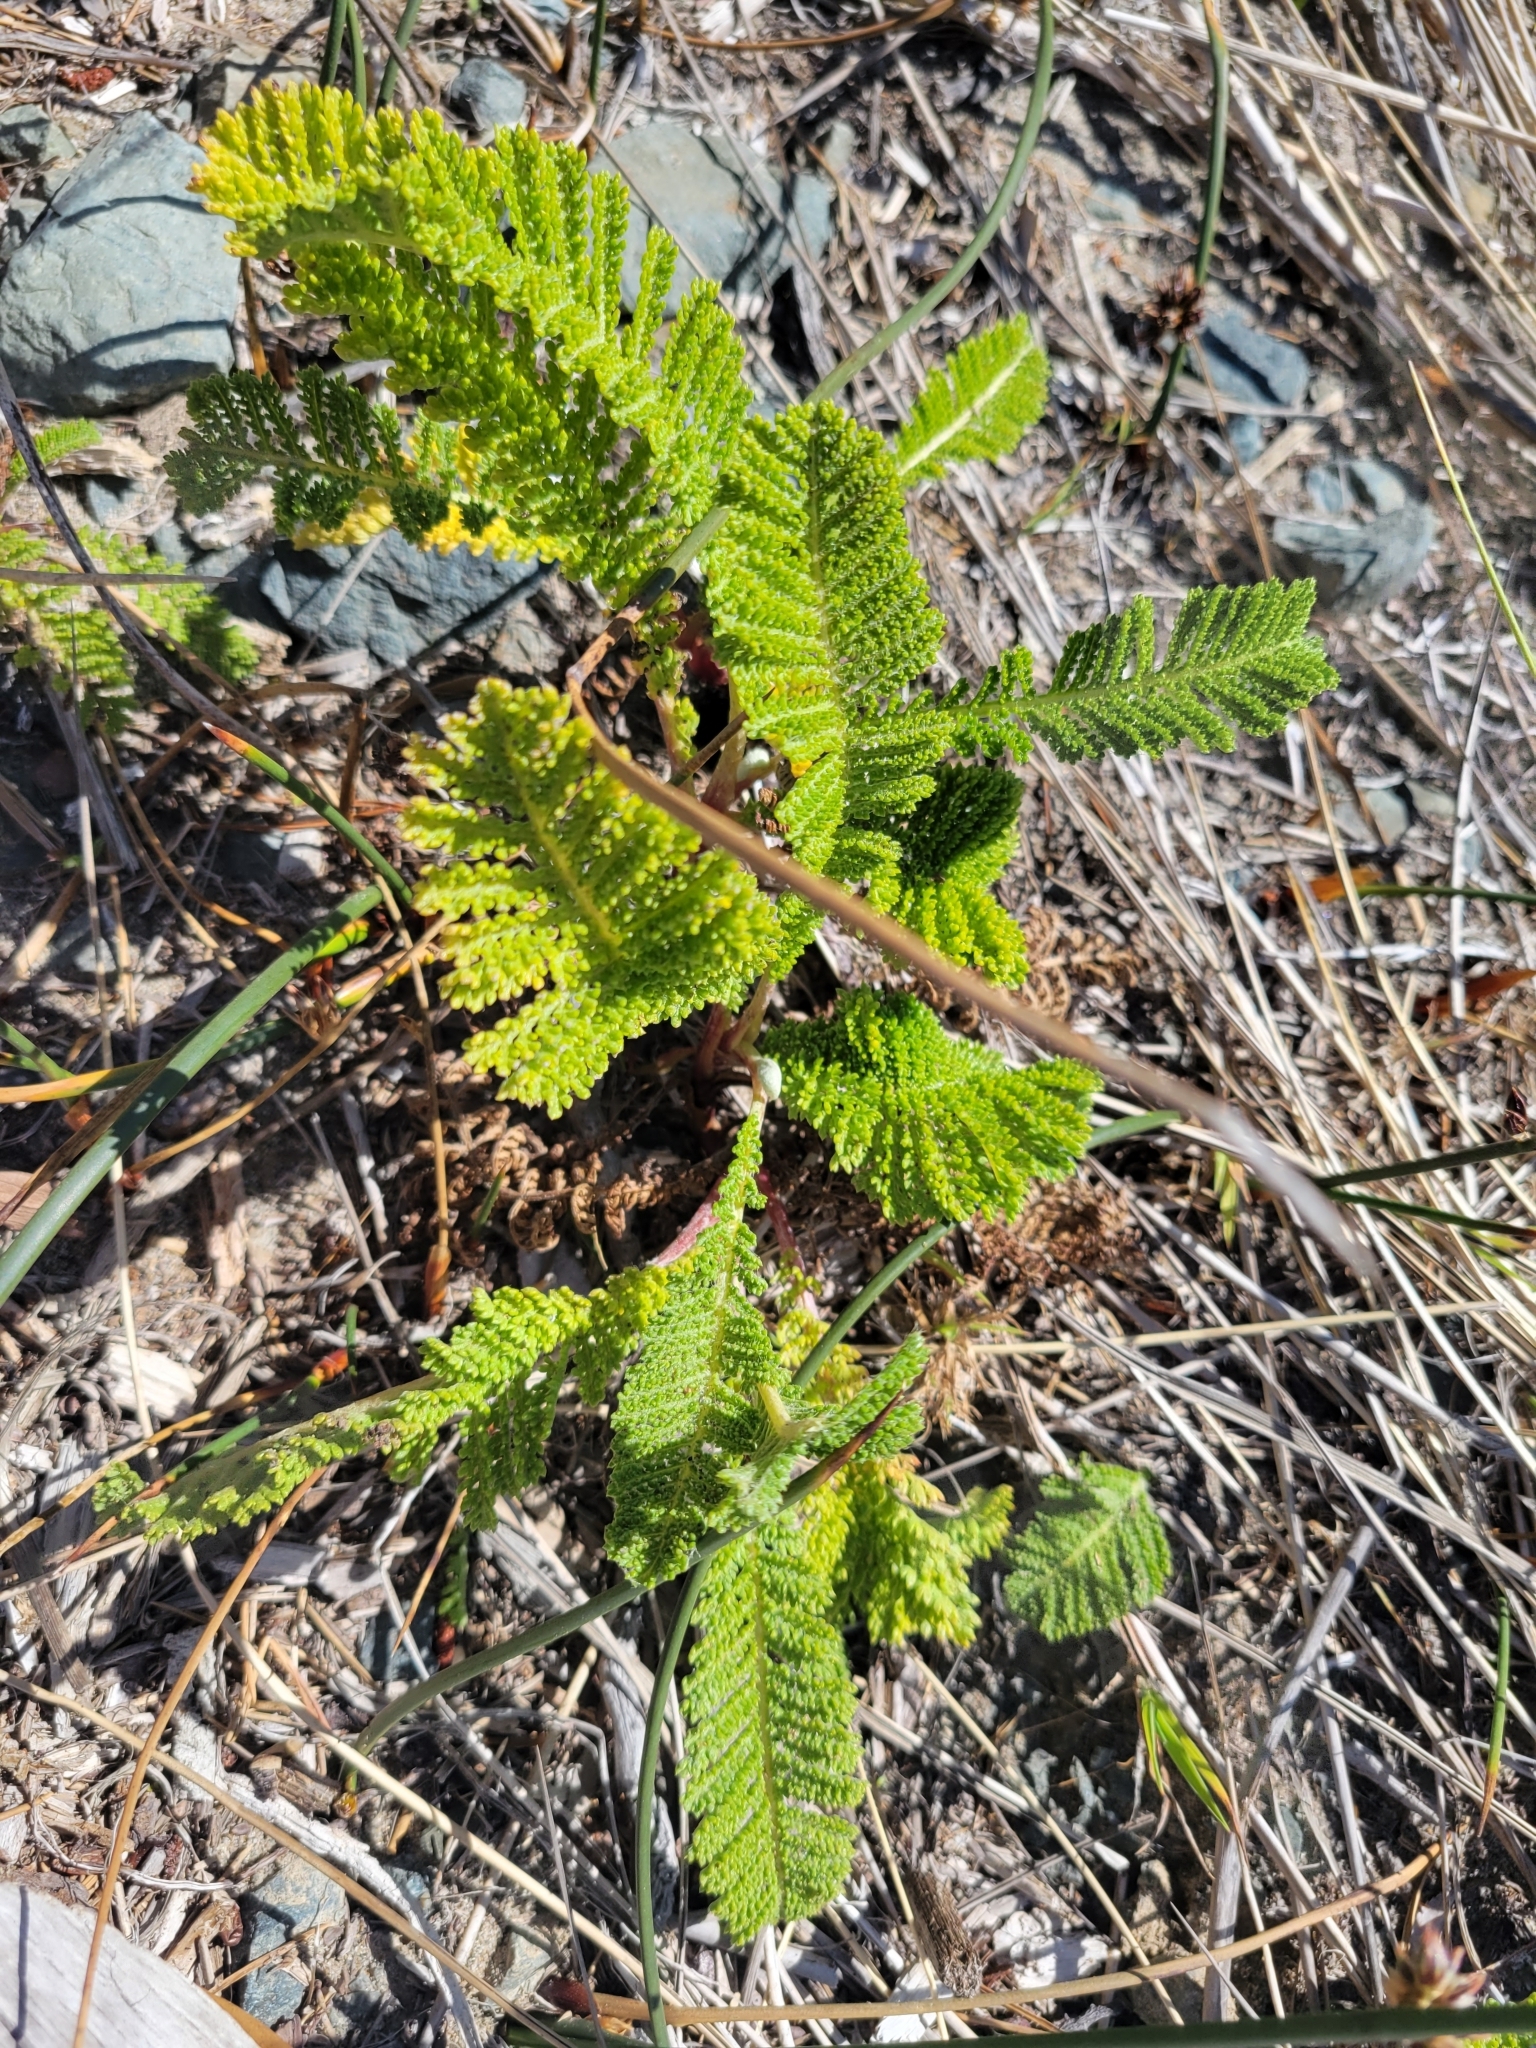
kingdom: Plantae
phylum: Tracheophyta
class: Magnoliopsida
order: Asterales
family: Asteraceae
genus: Tanacetum
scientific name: Tanacetum bipinnatum
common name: Dwarf tansy
